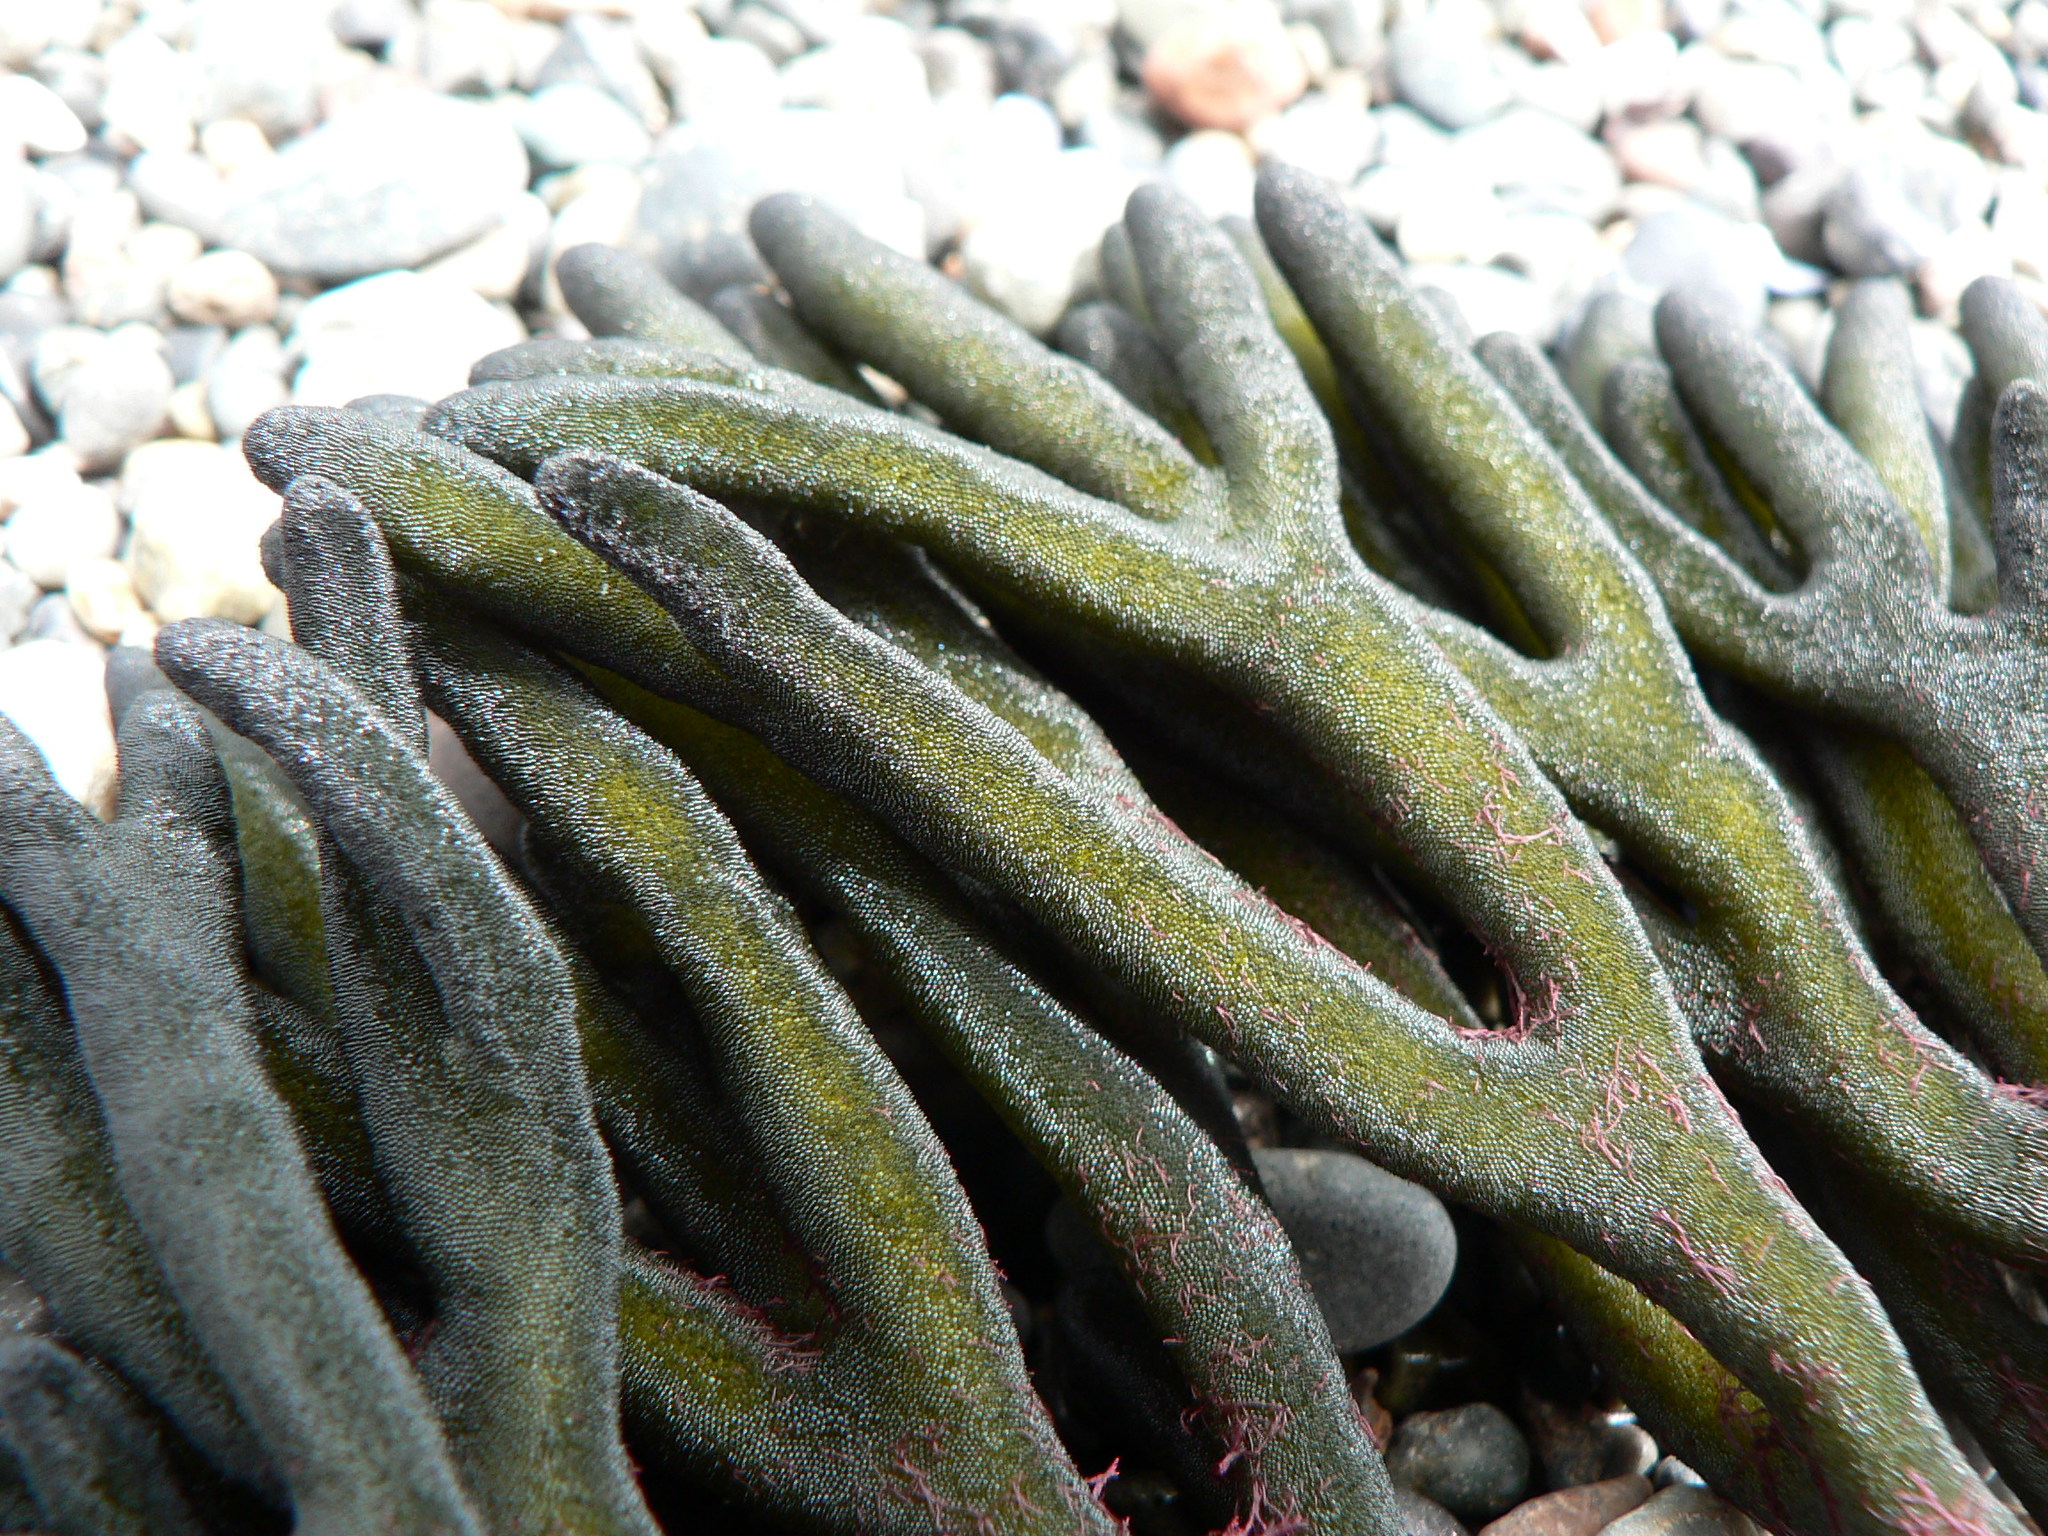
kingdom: Plantae
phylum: Chlorophyta
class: Ulvophyceae
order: Bryopsidales
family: Codiaceae
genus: Codium
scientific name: Codium fragile
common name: Dead man's fingers
